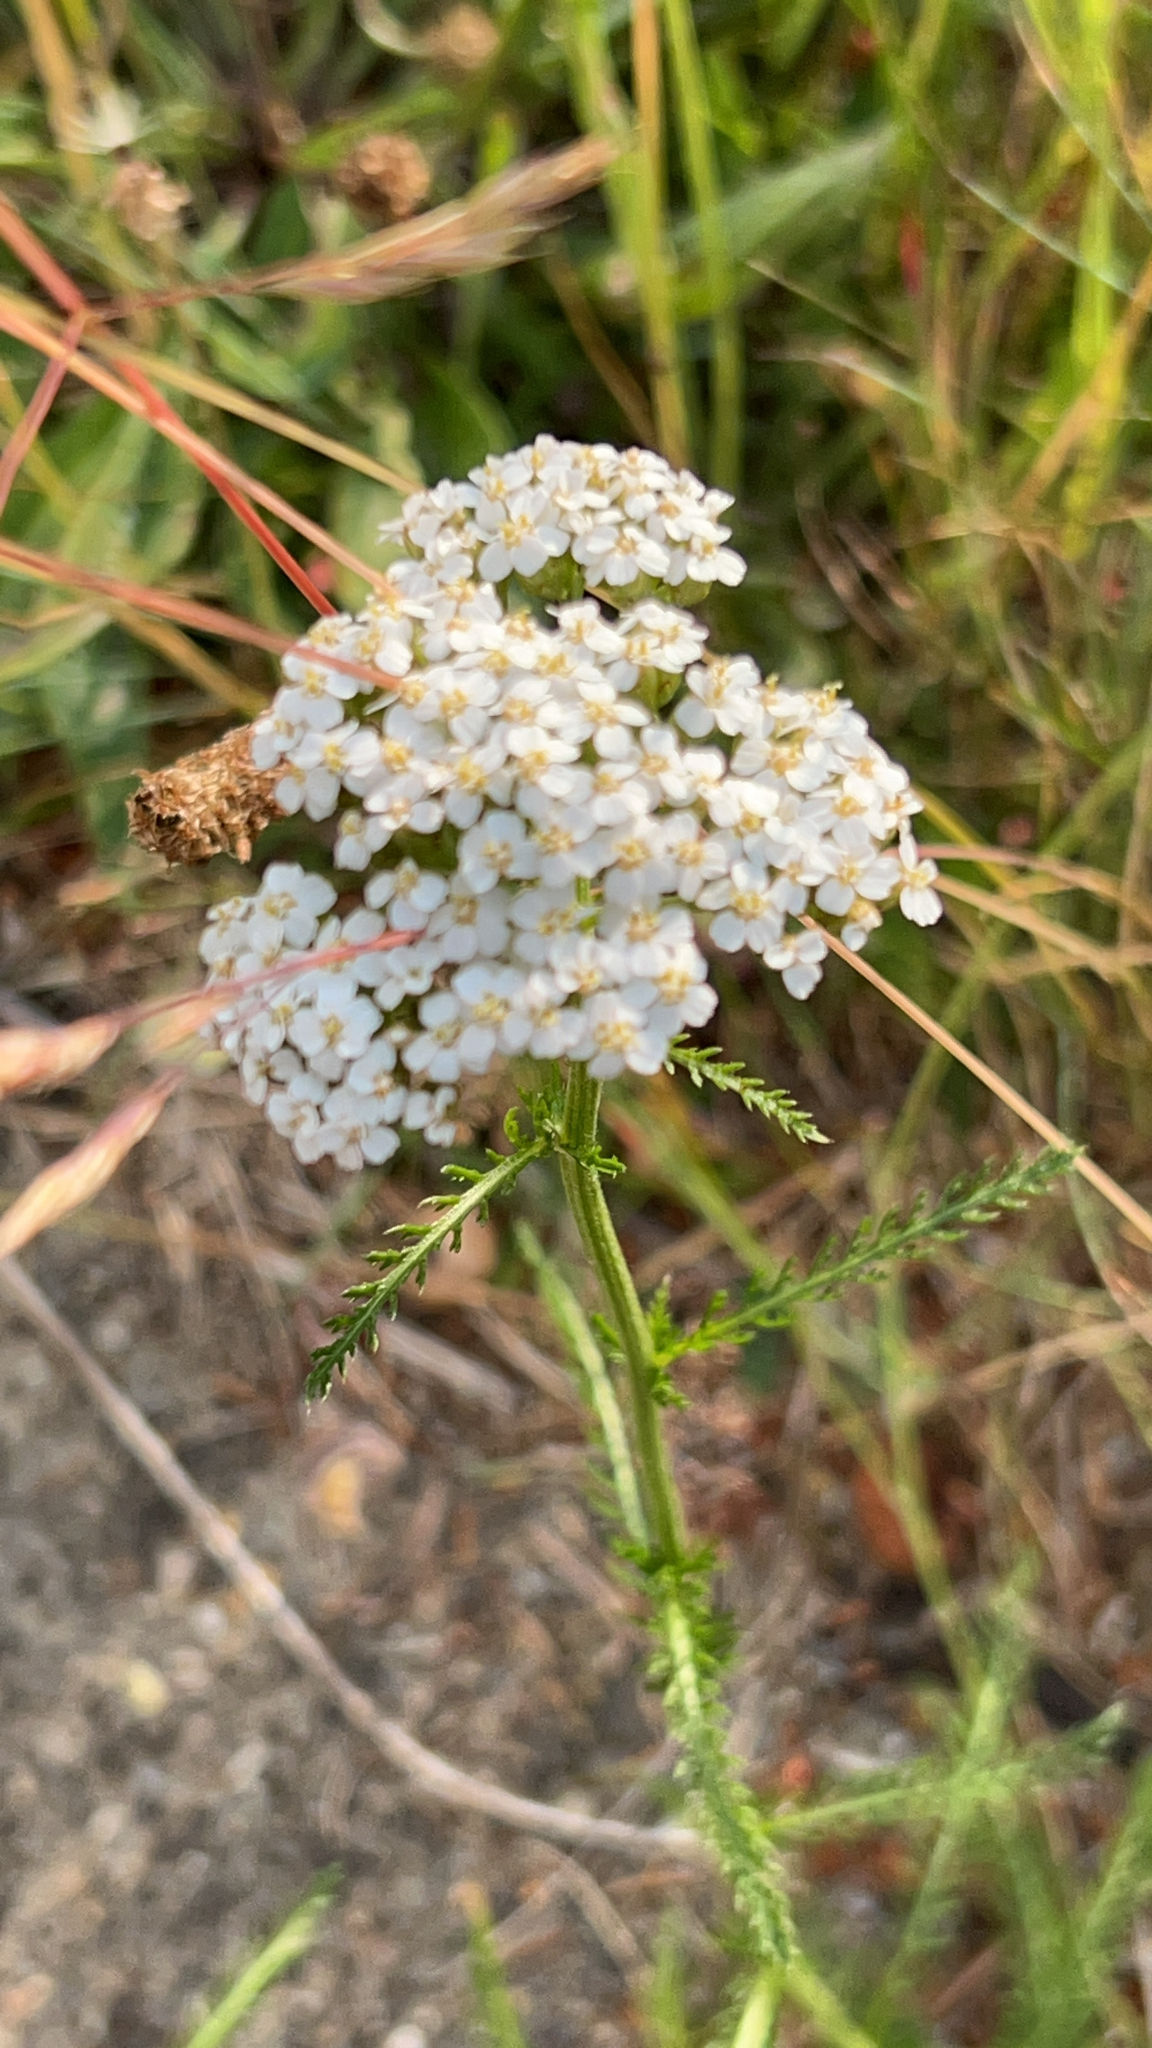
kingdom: Plantae
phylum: Tracheophyta
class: Magnoliopsida
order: Asterales
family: Asteraceae
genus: Achillea
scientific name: Achillea millefolium
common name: Yarrow
